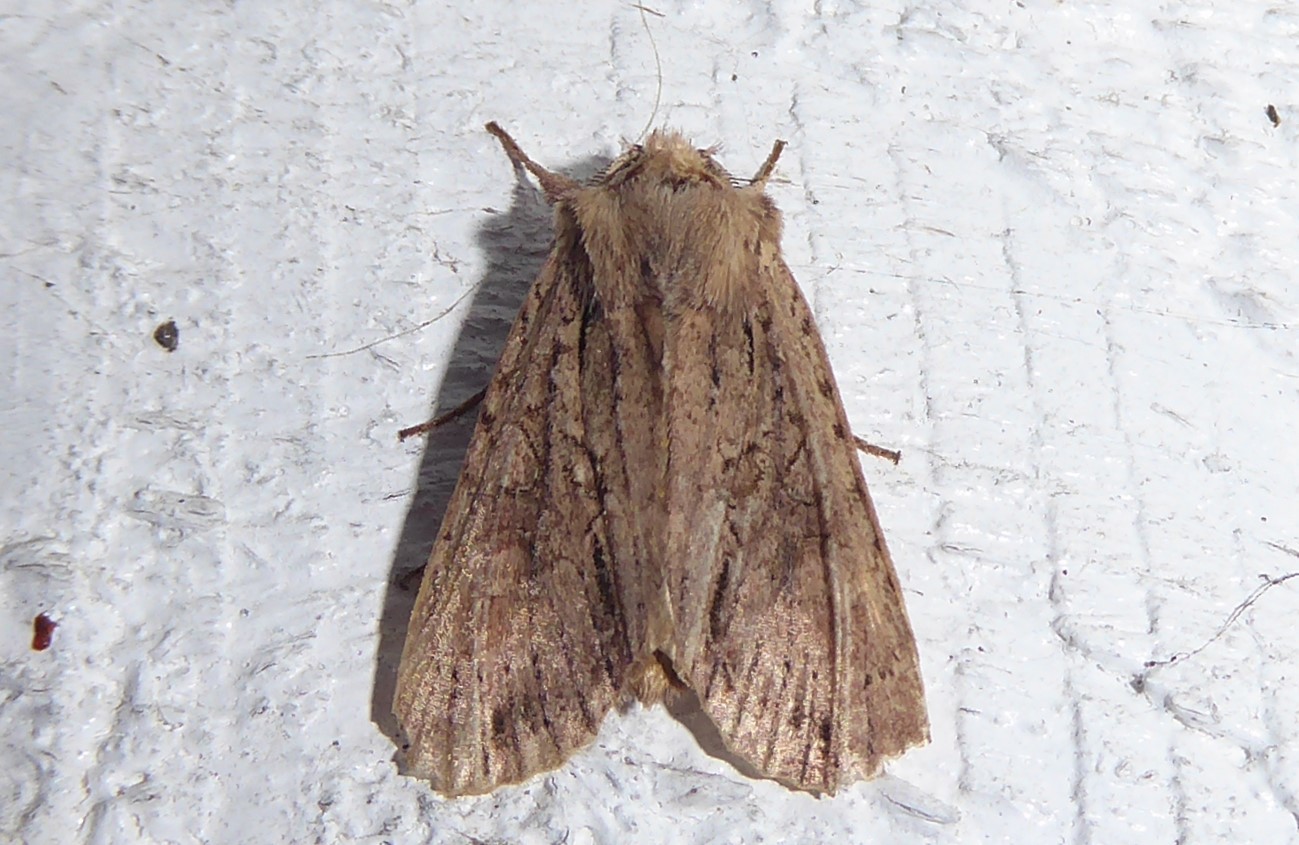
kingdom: Animalia
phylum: Arthropoda
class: Insecta
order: Lepidoptera
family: Noctuidae
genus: Ichneutica
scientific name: Ichneutica
